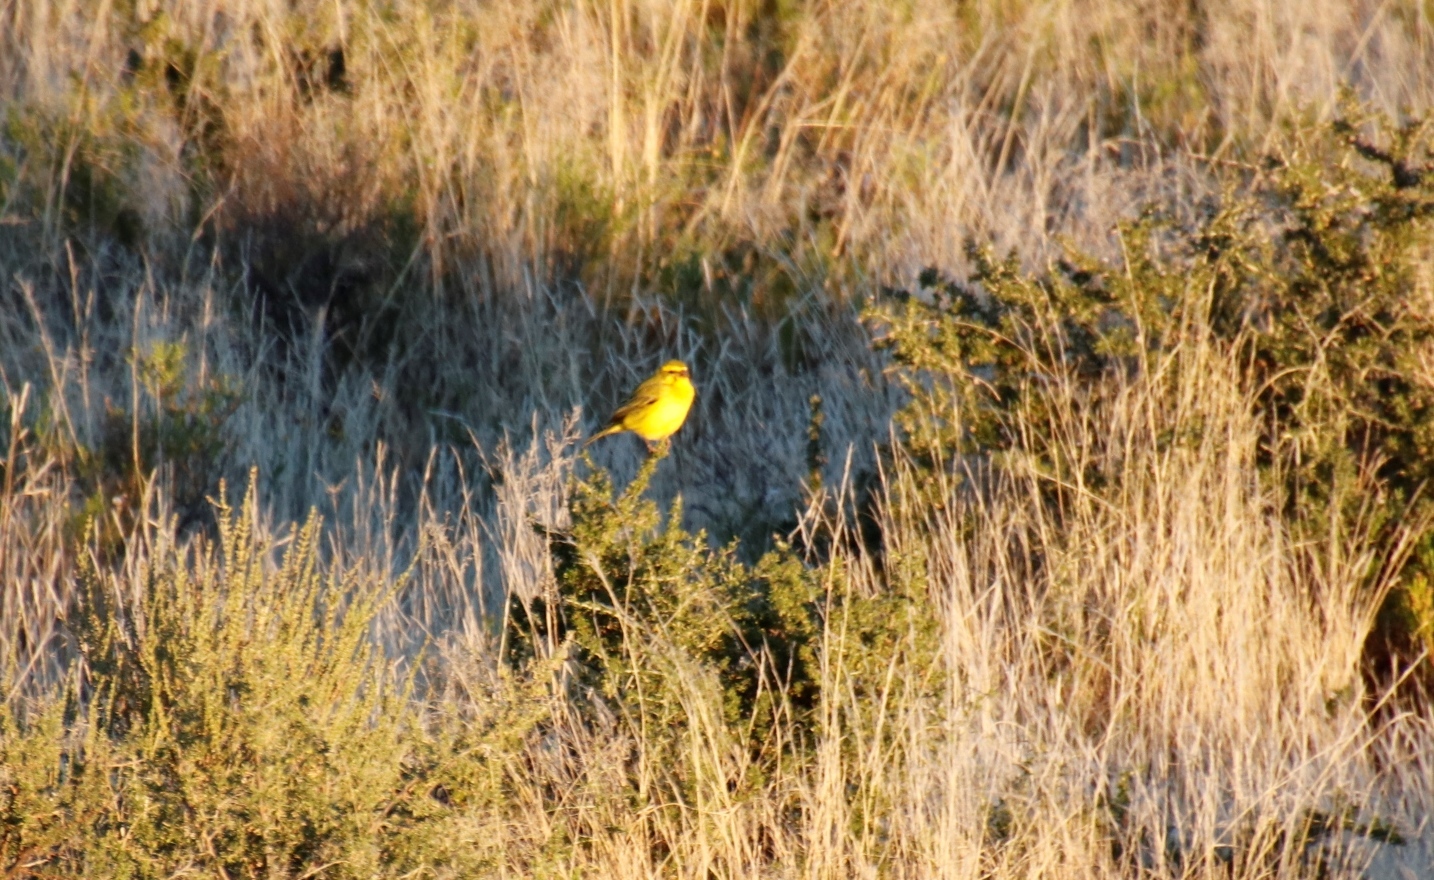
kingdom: Animalia
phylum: Chordata
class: Aves
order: Passeriformes
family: Fringillidae
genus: Crithagra
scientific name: Crithagra flaviventris
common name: Yellow canary
